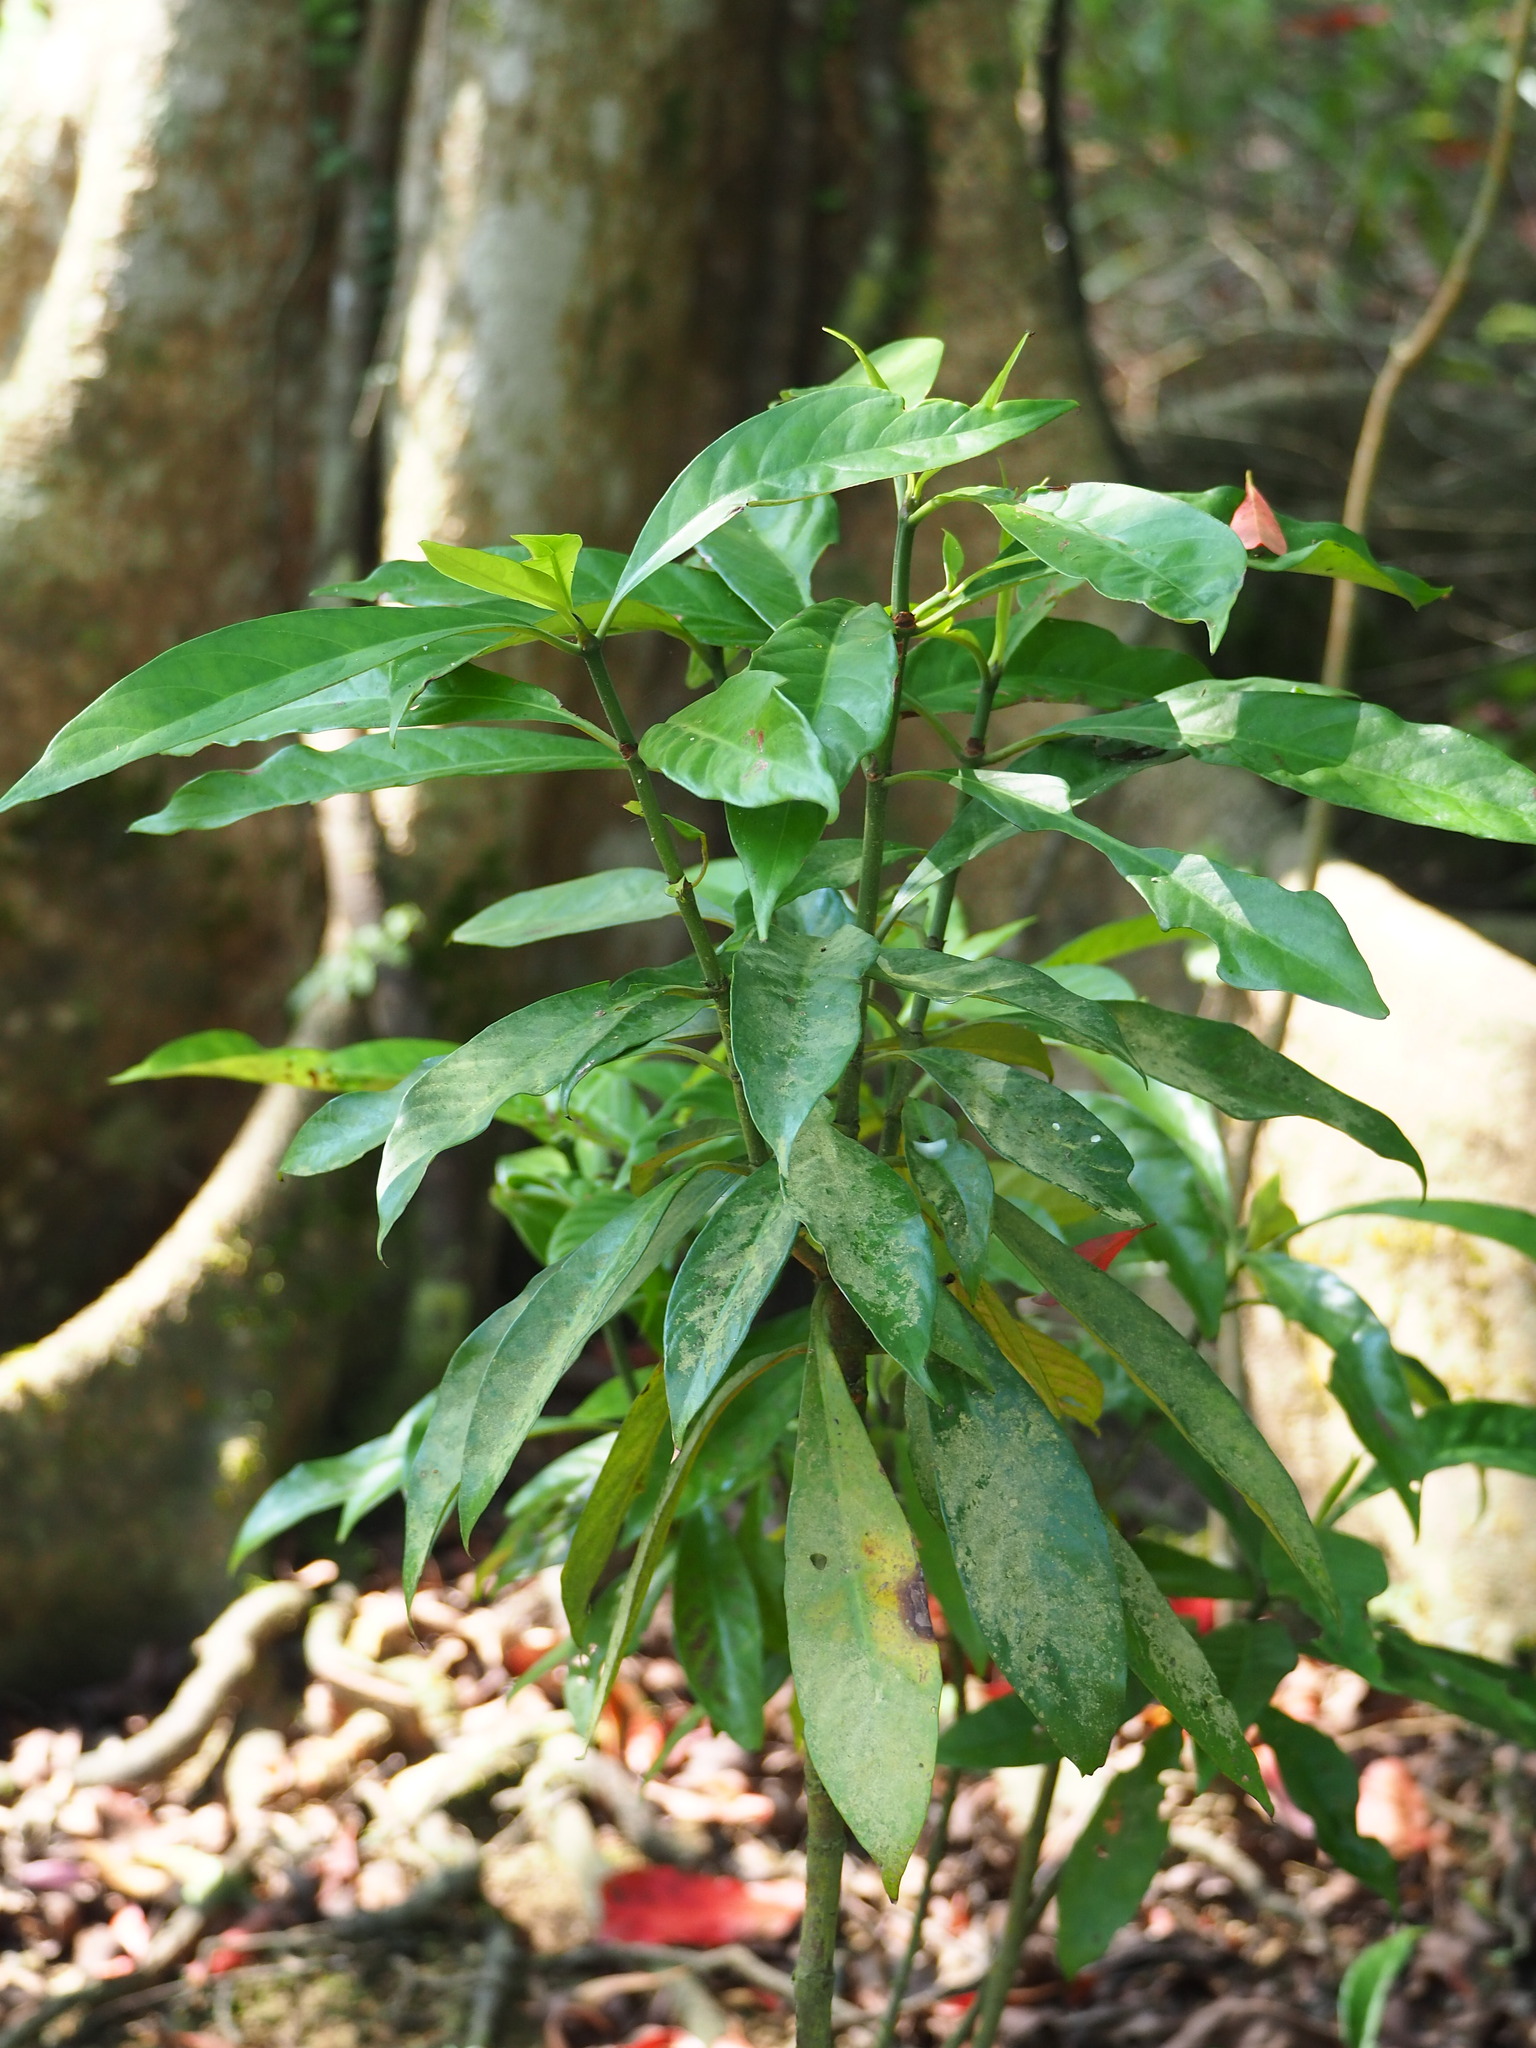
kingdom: Plantae
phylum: Tracheophyta
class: Magnoliopsida
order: Gentianales
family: Rubiaceae
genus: Psychotria
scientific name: Psychotria asiatica
